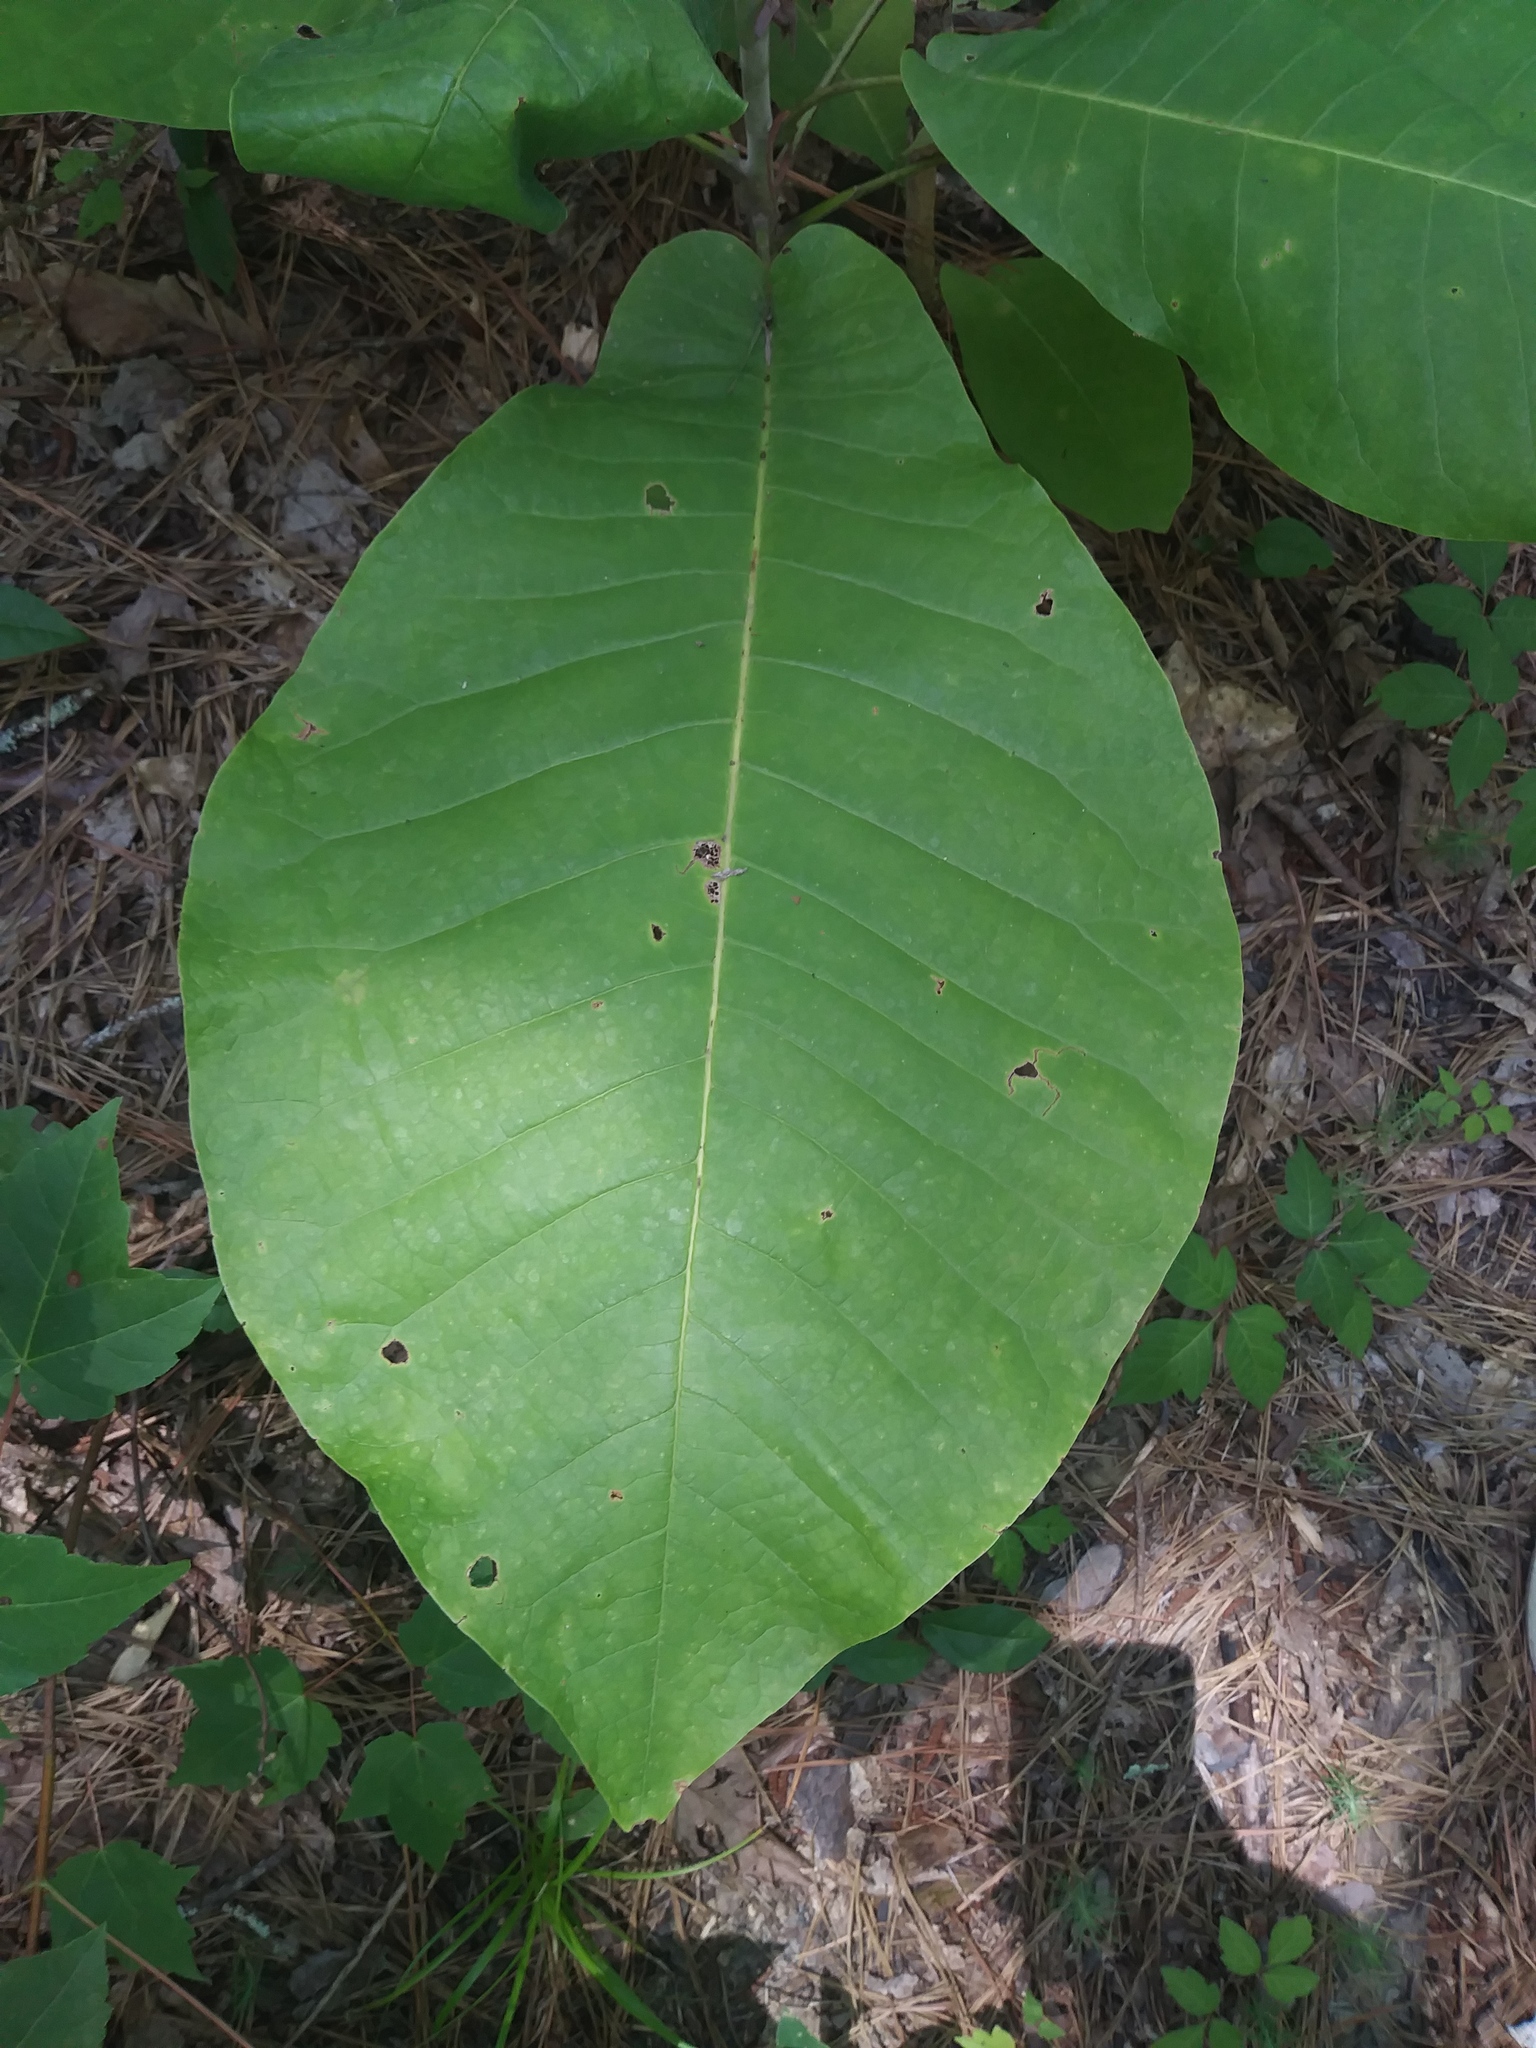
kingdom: Plantae
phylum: Tracheophyta
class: Magnoliopsida
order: Magnoliales
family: Magnoliaceae
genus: Magnolia
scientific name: Magnolia macrophylla
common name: Big-leaf magnolia
